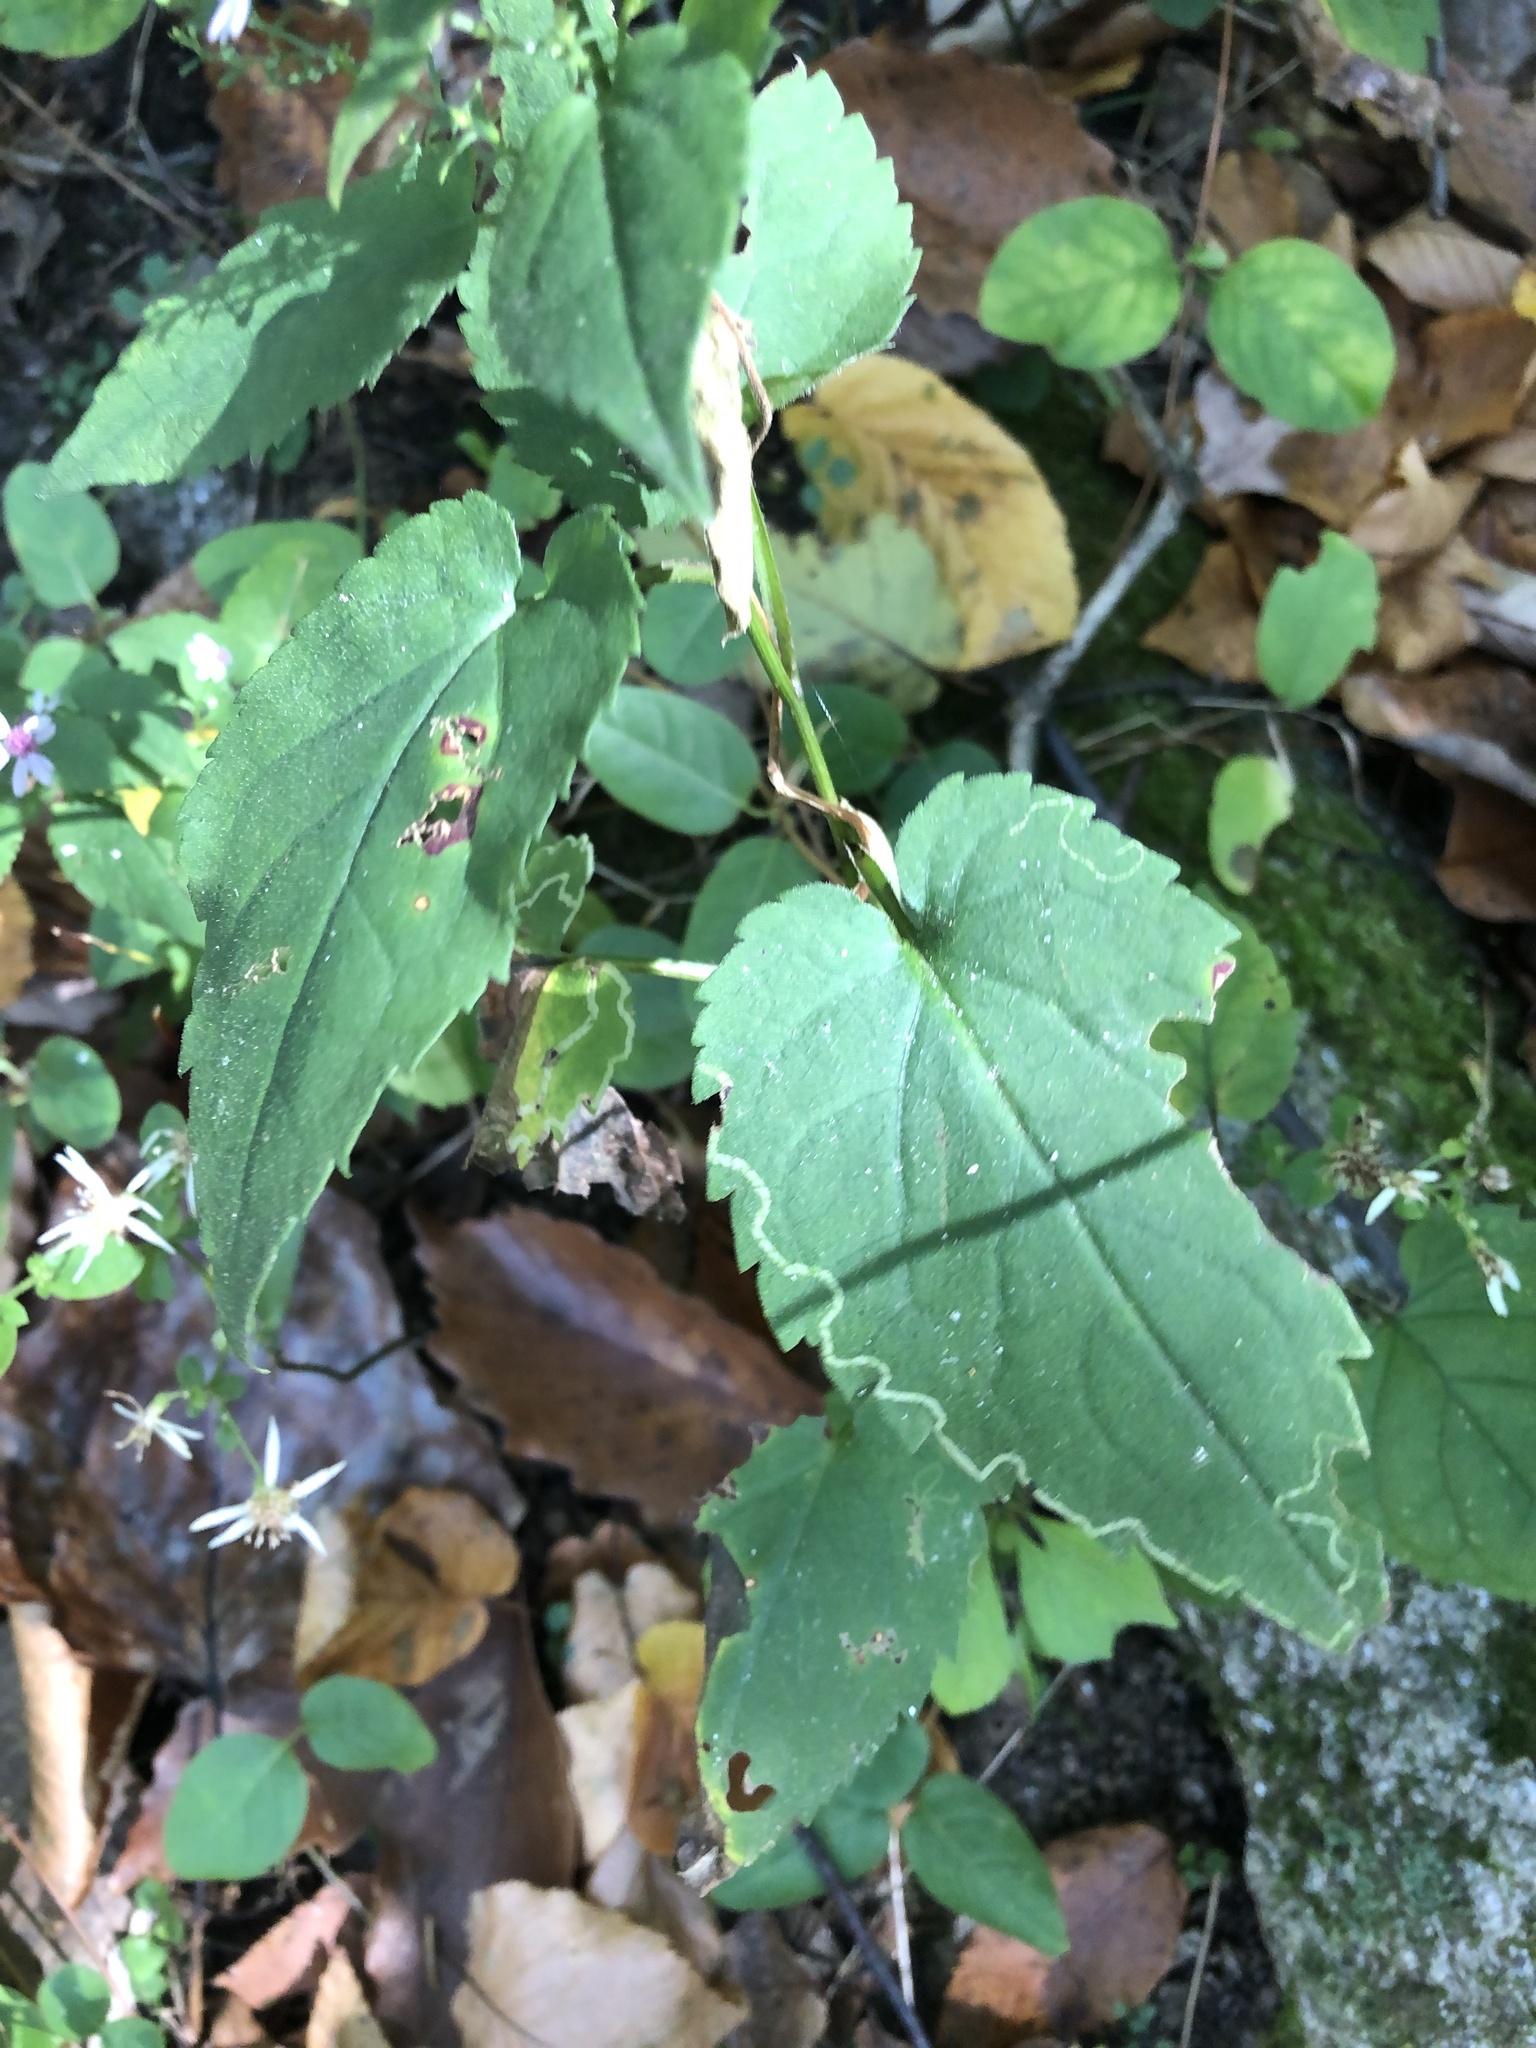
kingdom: Plantae
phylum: Tracheophyta
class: Magnoliopsida
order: Asterales
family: Asteraceae
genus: Symphyotrichum
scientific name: Symphyotrichum cordifolium
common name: Beeweed
